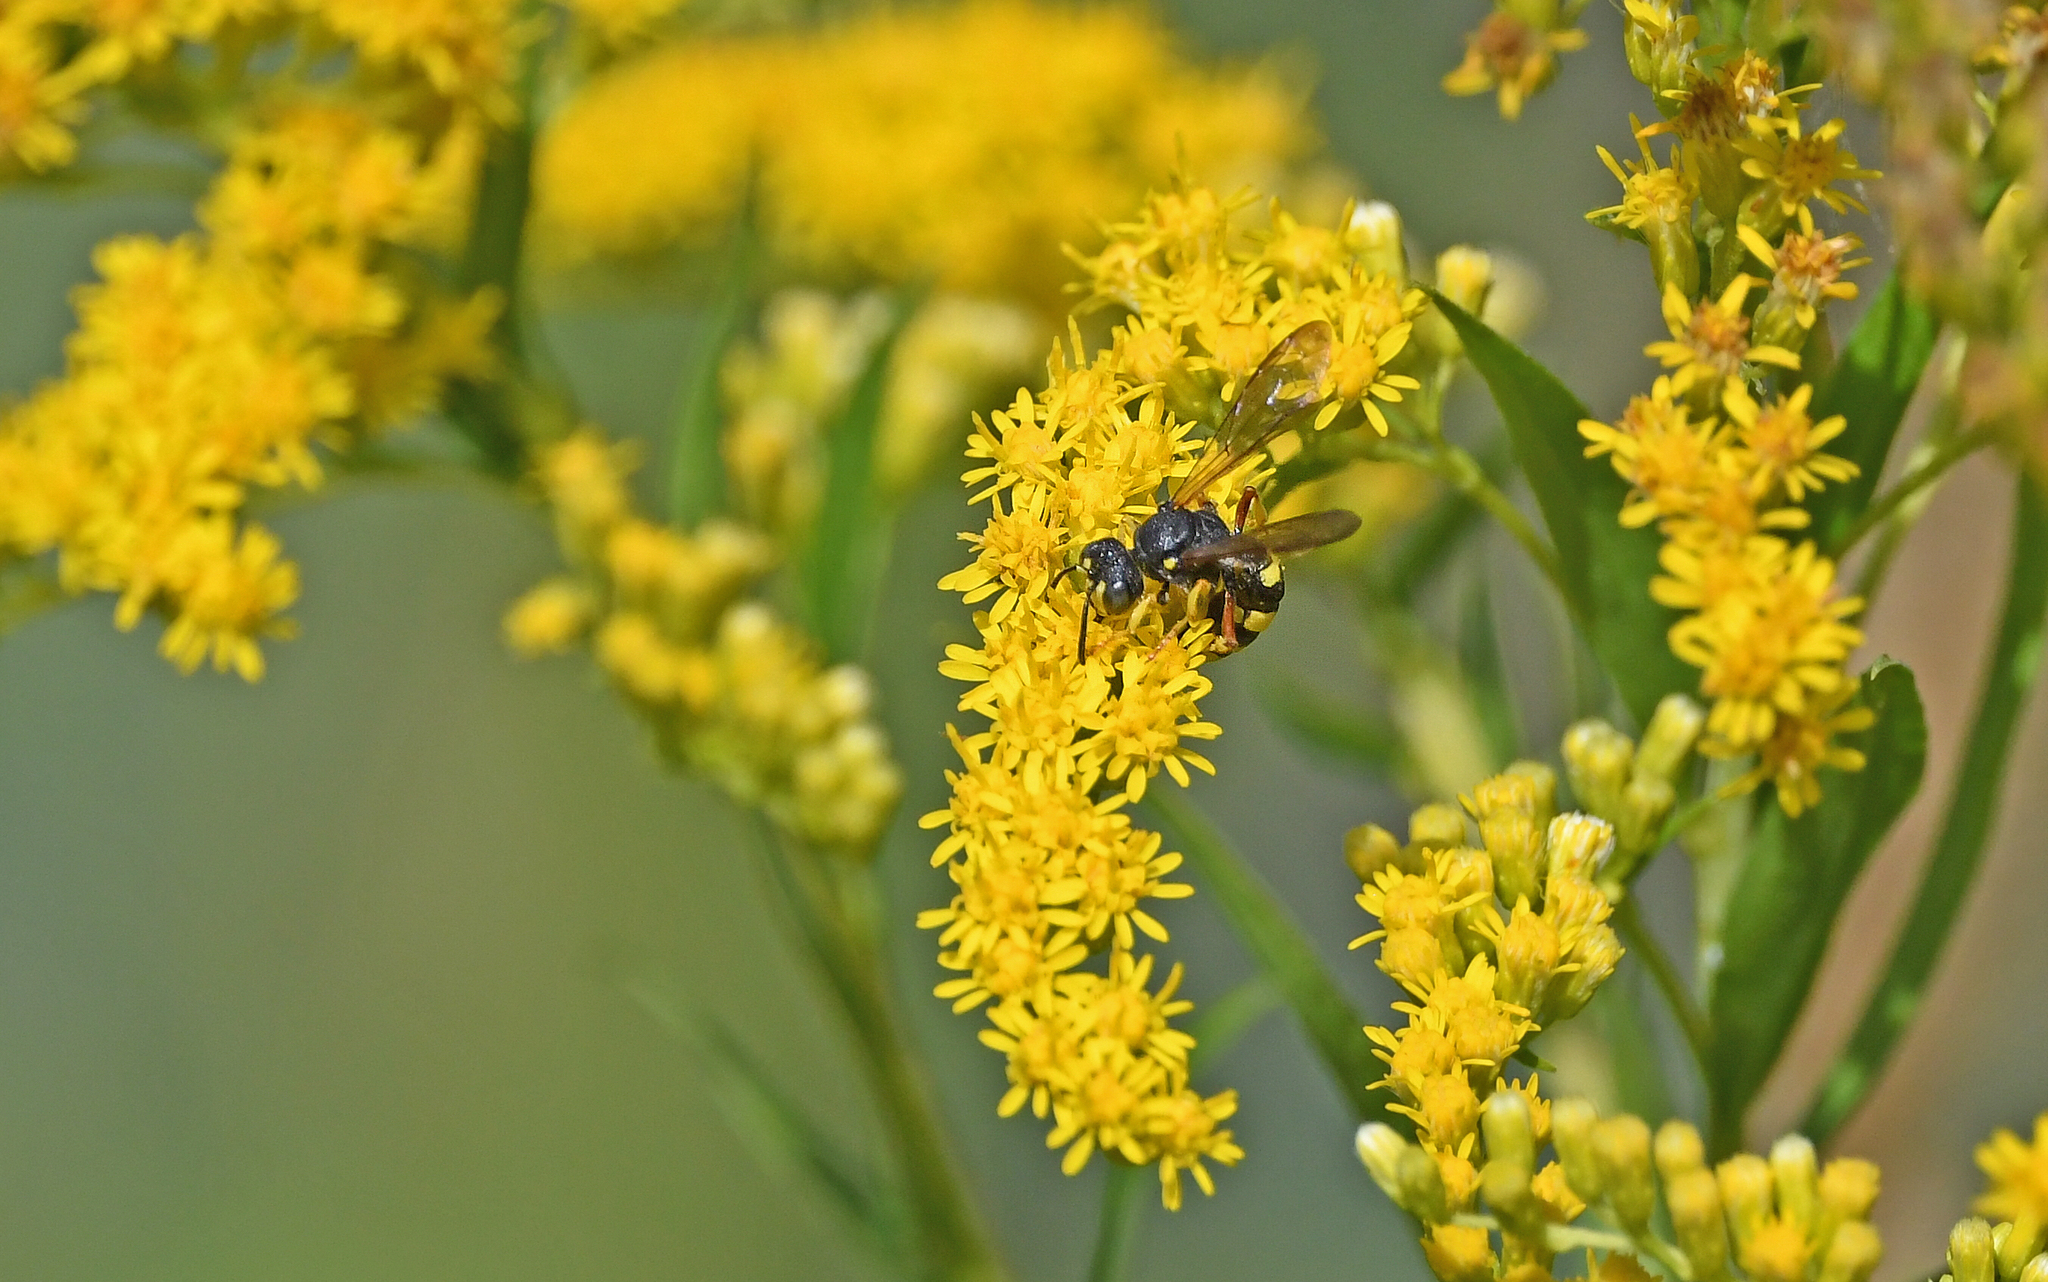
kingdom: Animalia
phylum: Arthropoda
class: Insecta
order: Hymenoptera
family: Crabronidae
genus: Cerceris
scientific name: Cerceris rybyensis
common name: Ornate tailed digger wasp
